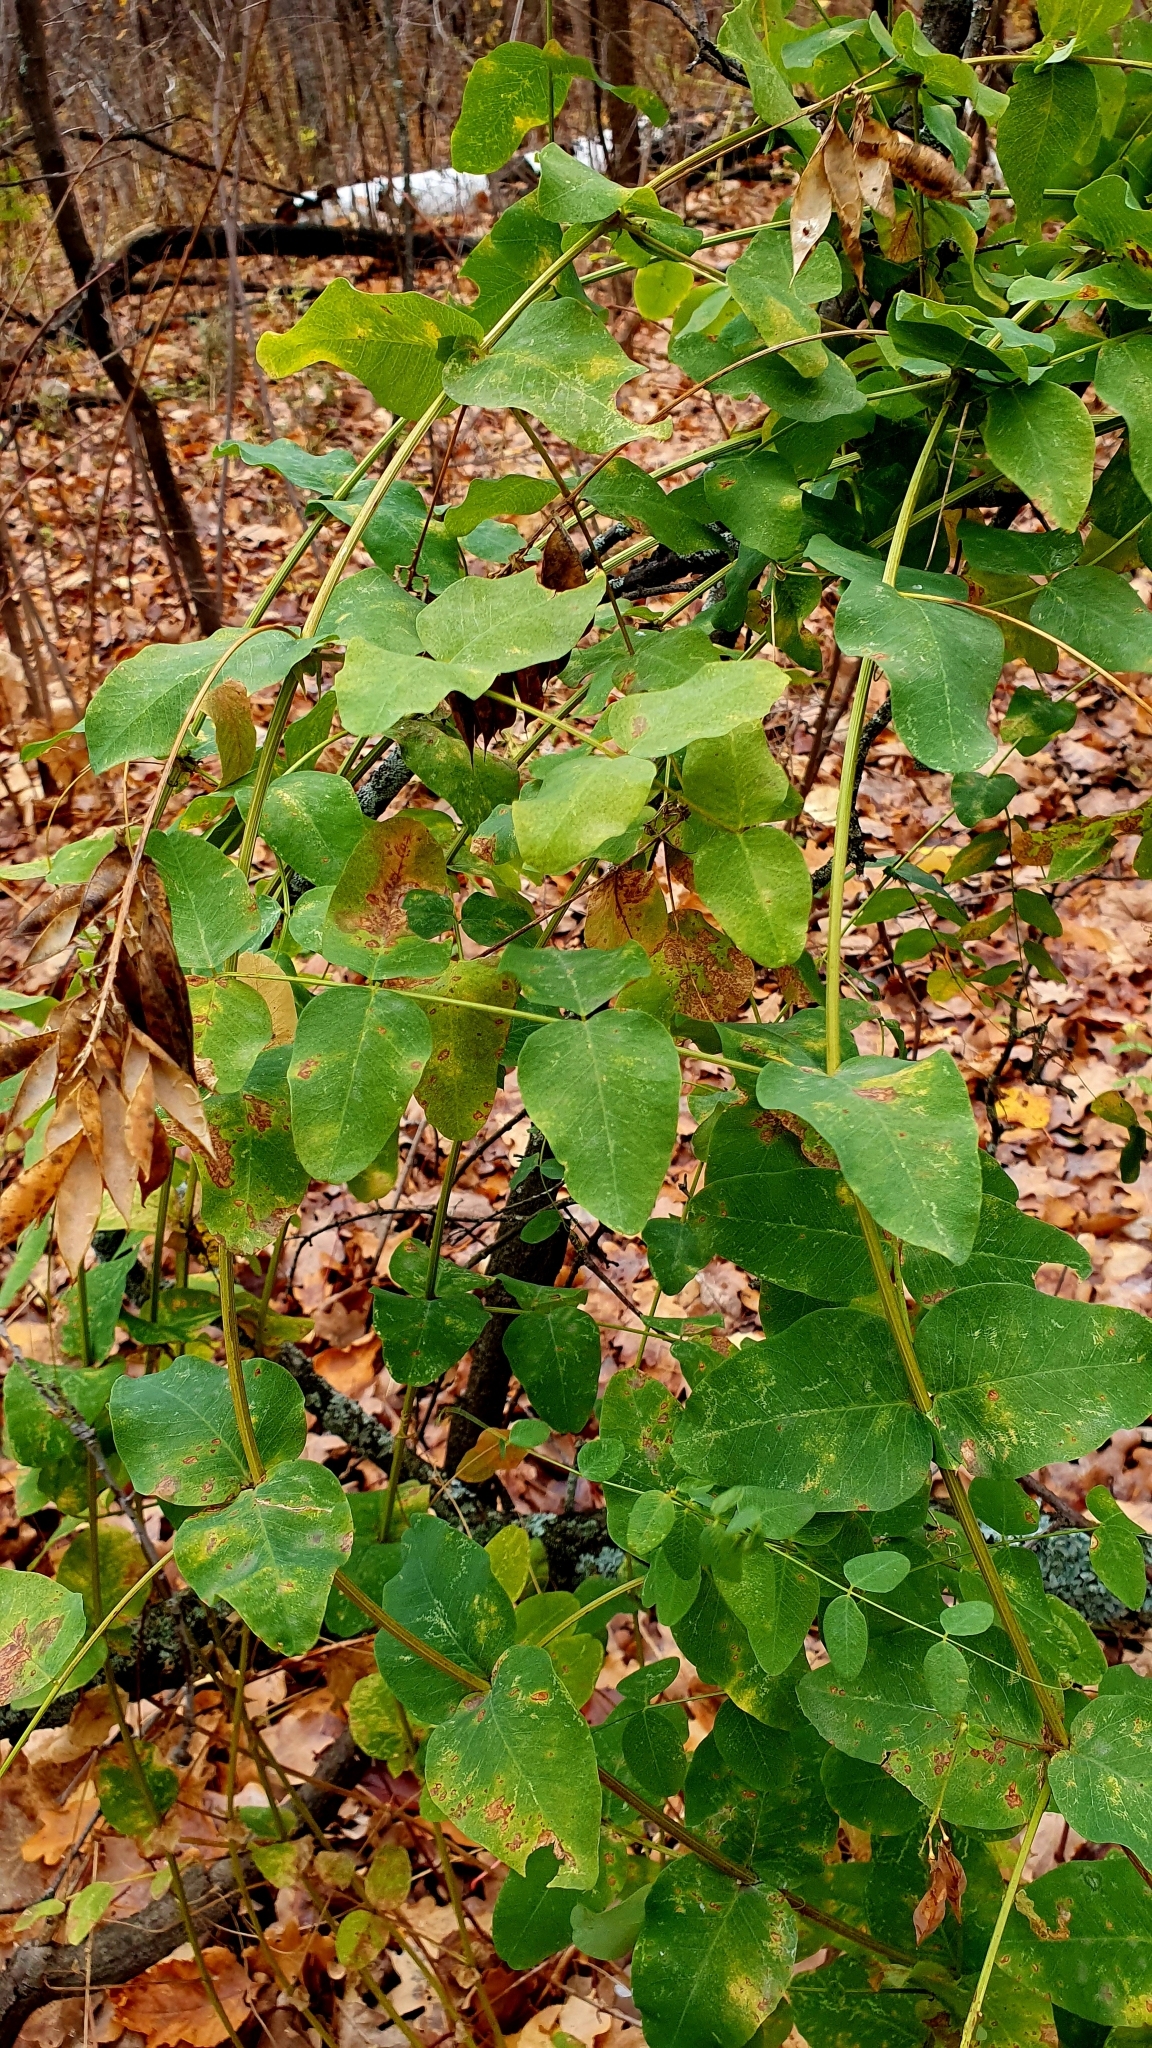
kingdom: Plantae
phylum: Tracheophyta
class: Magnoliopsida
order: Fabales
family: Fabaceae
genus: Vicia
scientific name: Vicia pisiformis
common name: Pale-flower vetch
